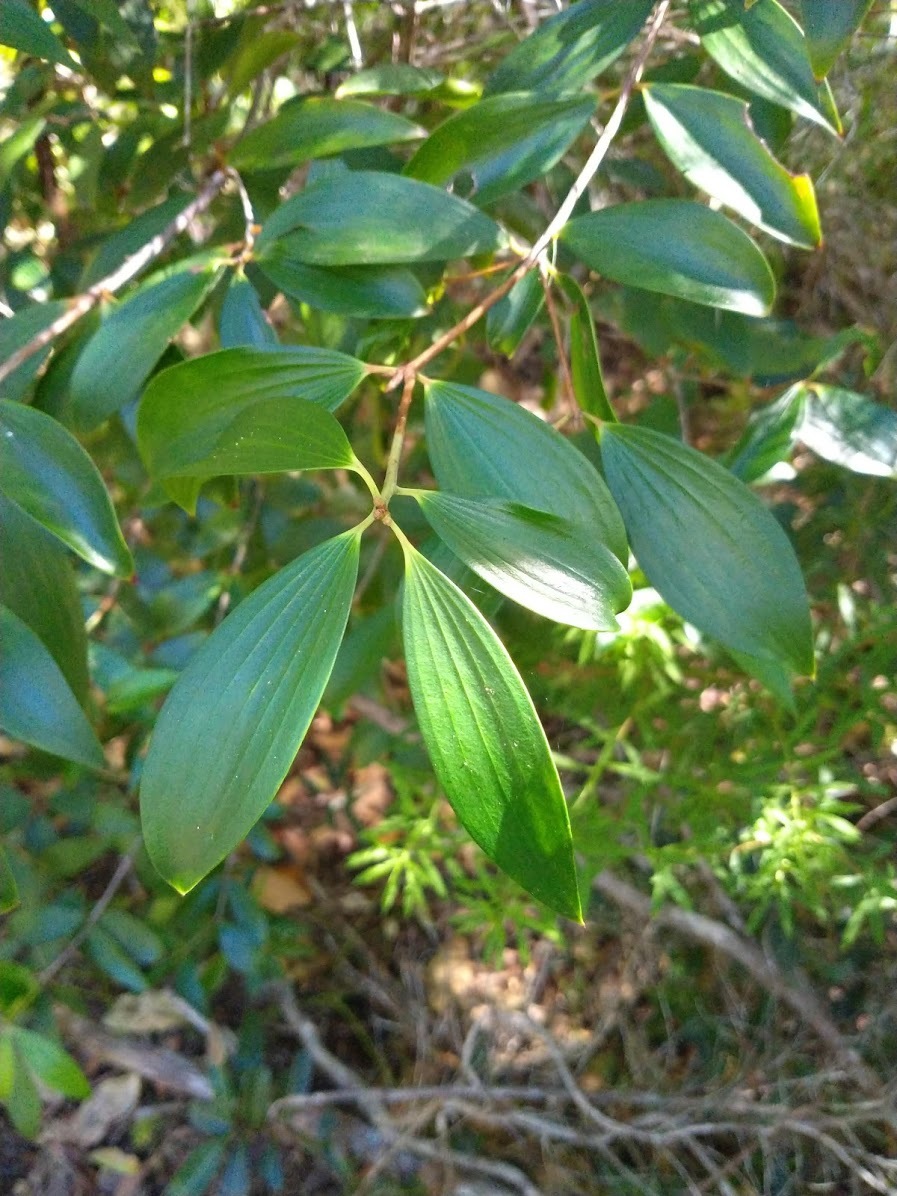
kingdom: Plantae
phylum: Tracheophyta
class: Magnoliopsida
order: Ericales
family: Ericaceae
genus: Trochocarpa
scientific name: Trochocarpa laurina
